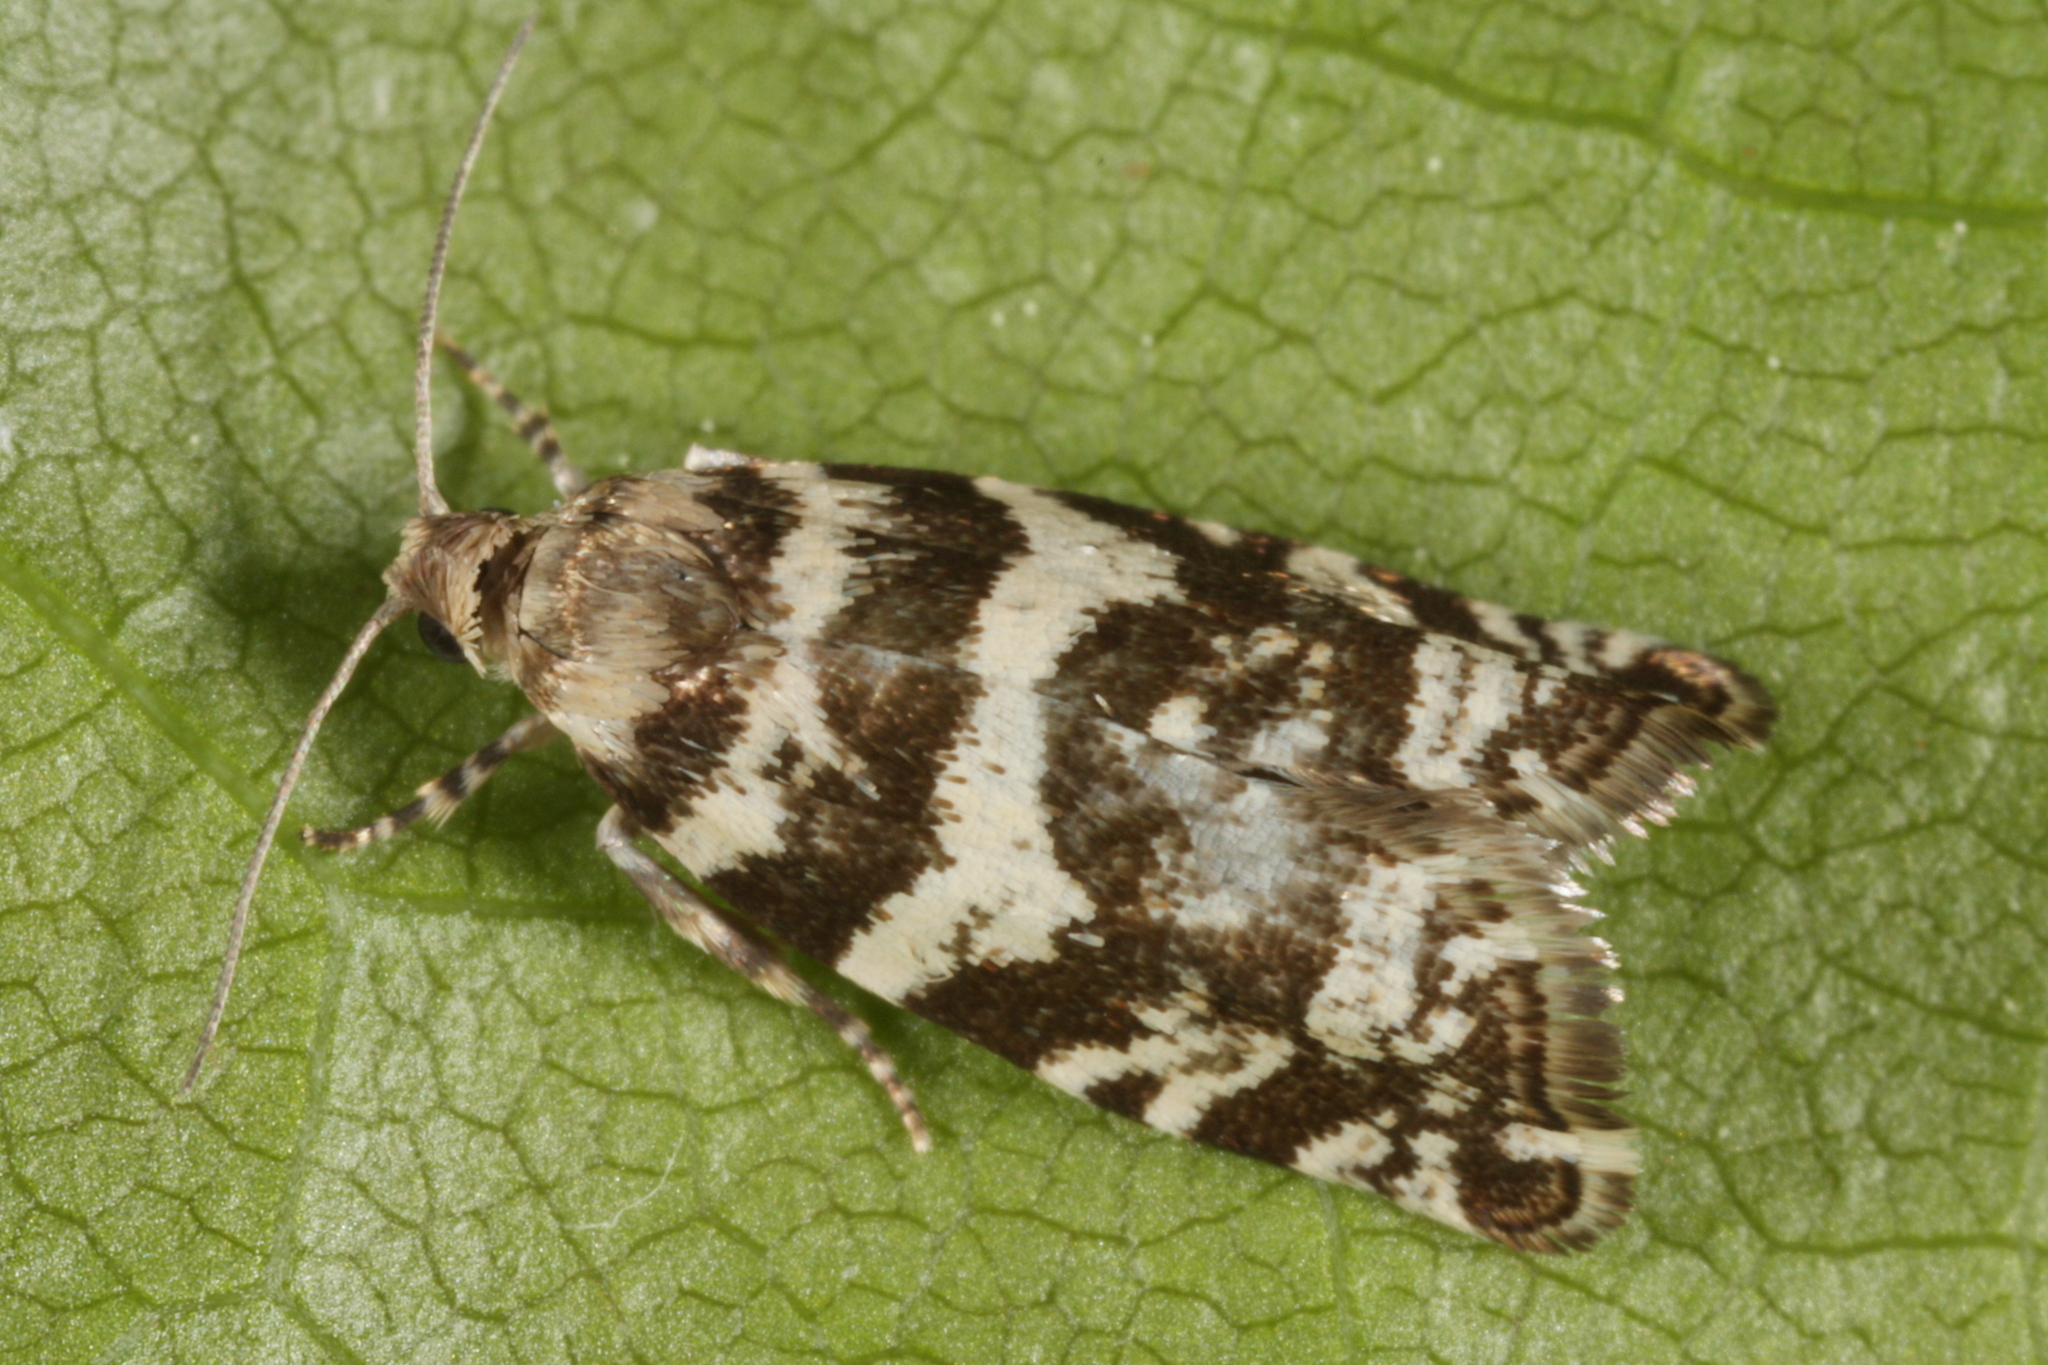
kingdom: Animalia
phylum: Arthropoda
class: Insecta
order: Lepidoptera
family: Tortricidae
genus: Epinotia
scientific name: Epinotia tedella
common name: Common spruce bell
